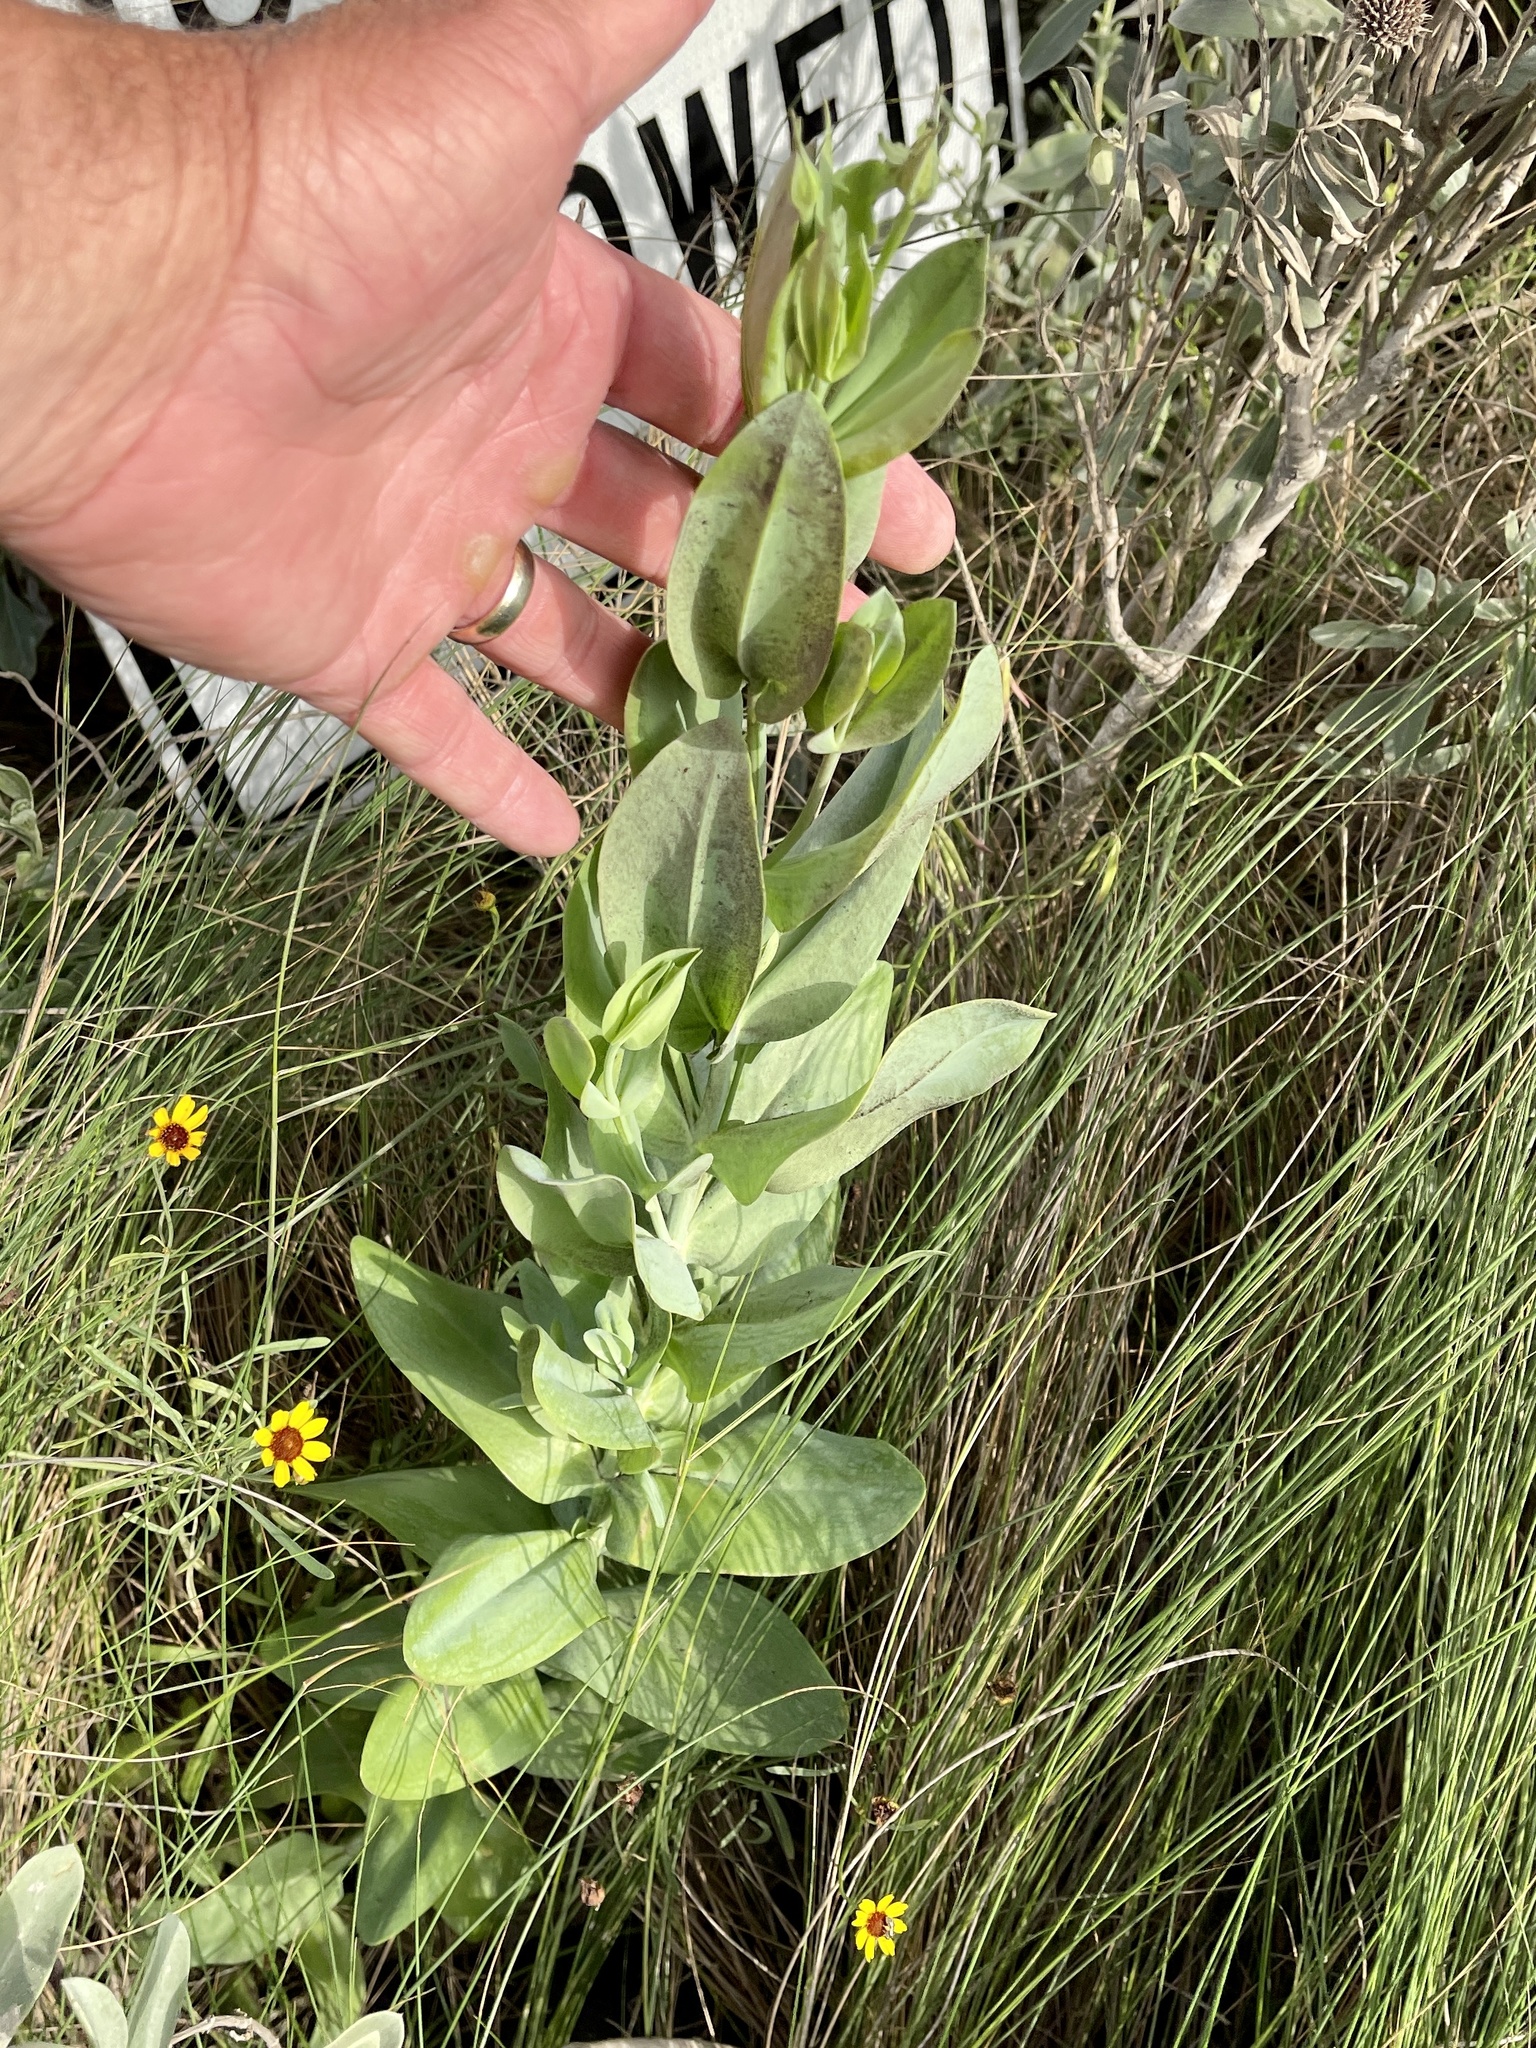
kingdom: Plantae
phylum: Tracheophyta
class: Magnoliopsida
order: Gentianales
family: Gentianaceae
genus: Eustoma
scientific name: Eustoma exaltatum
